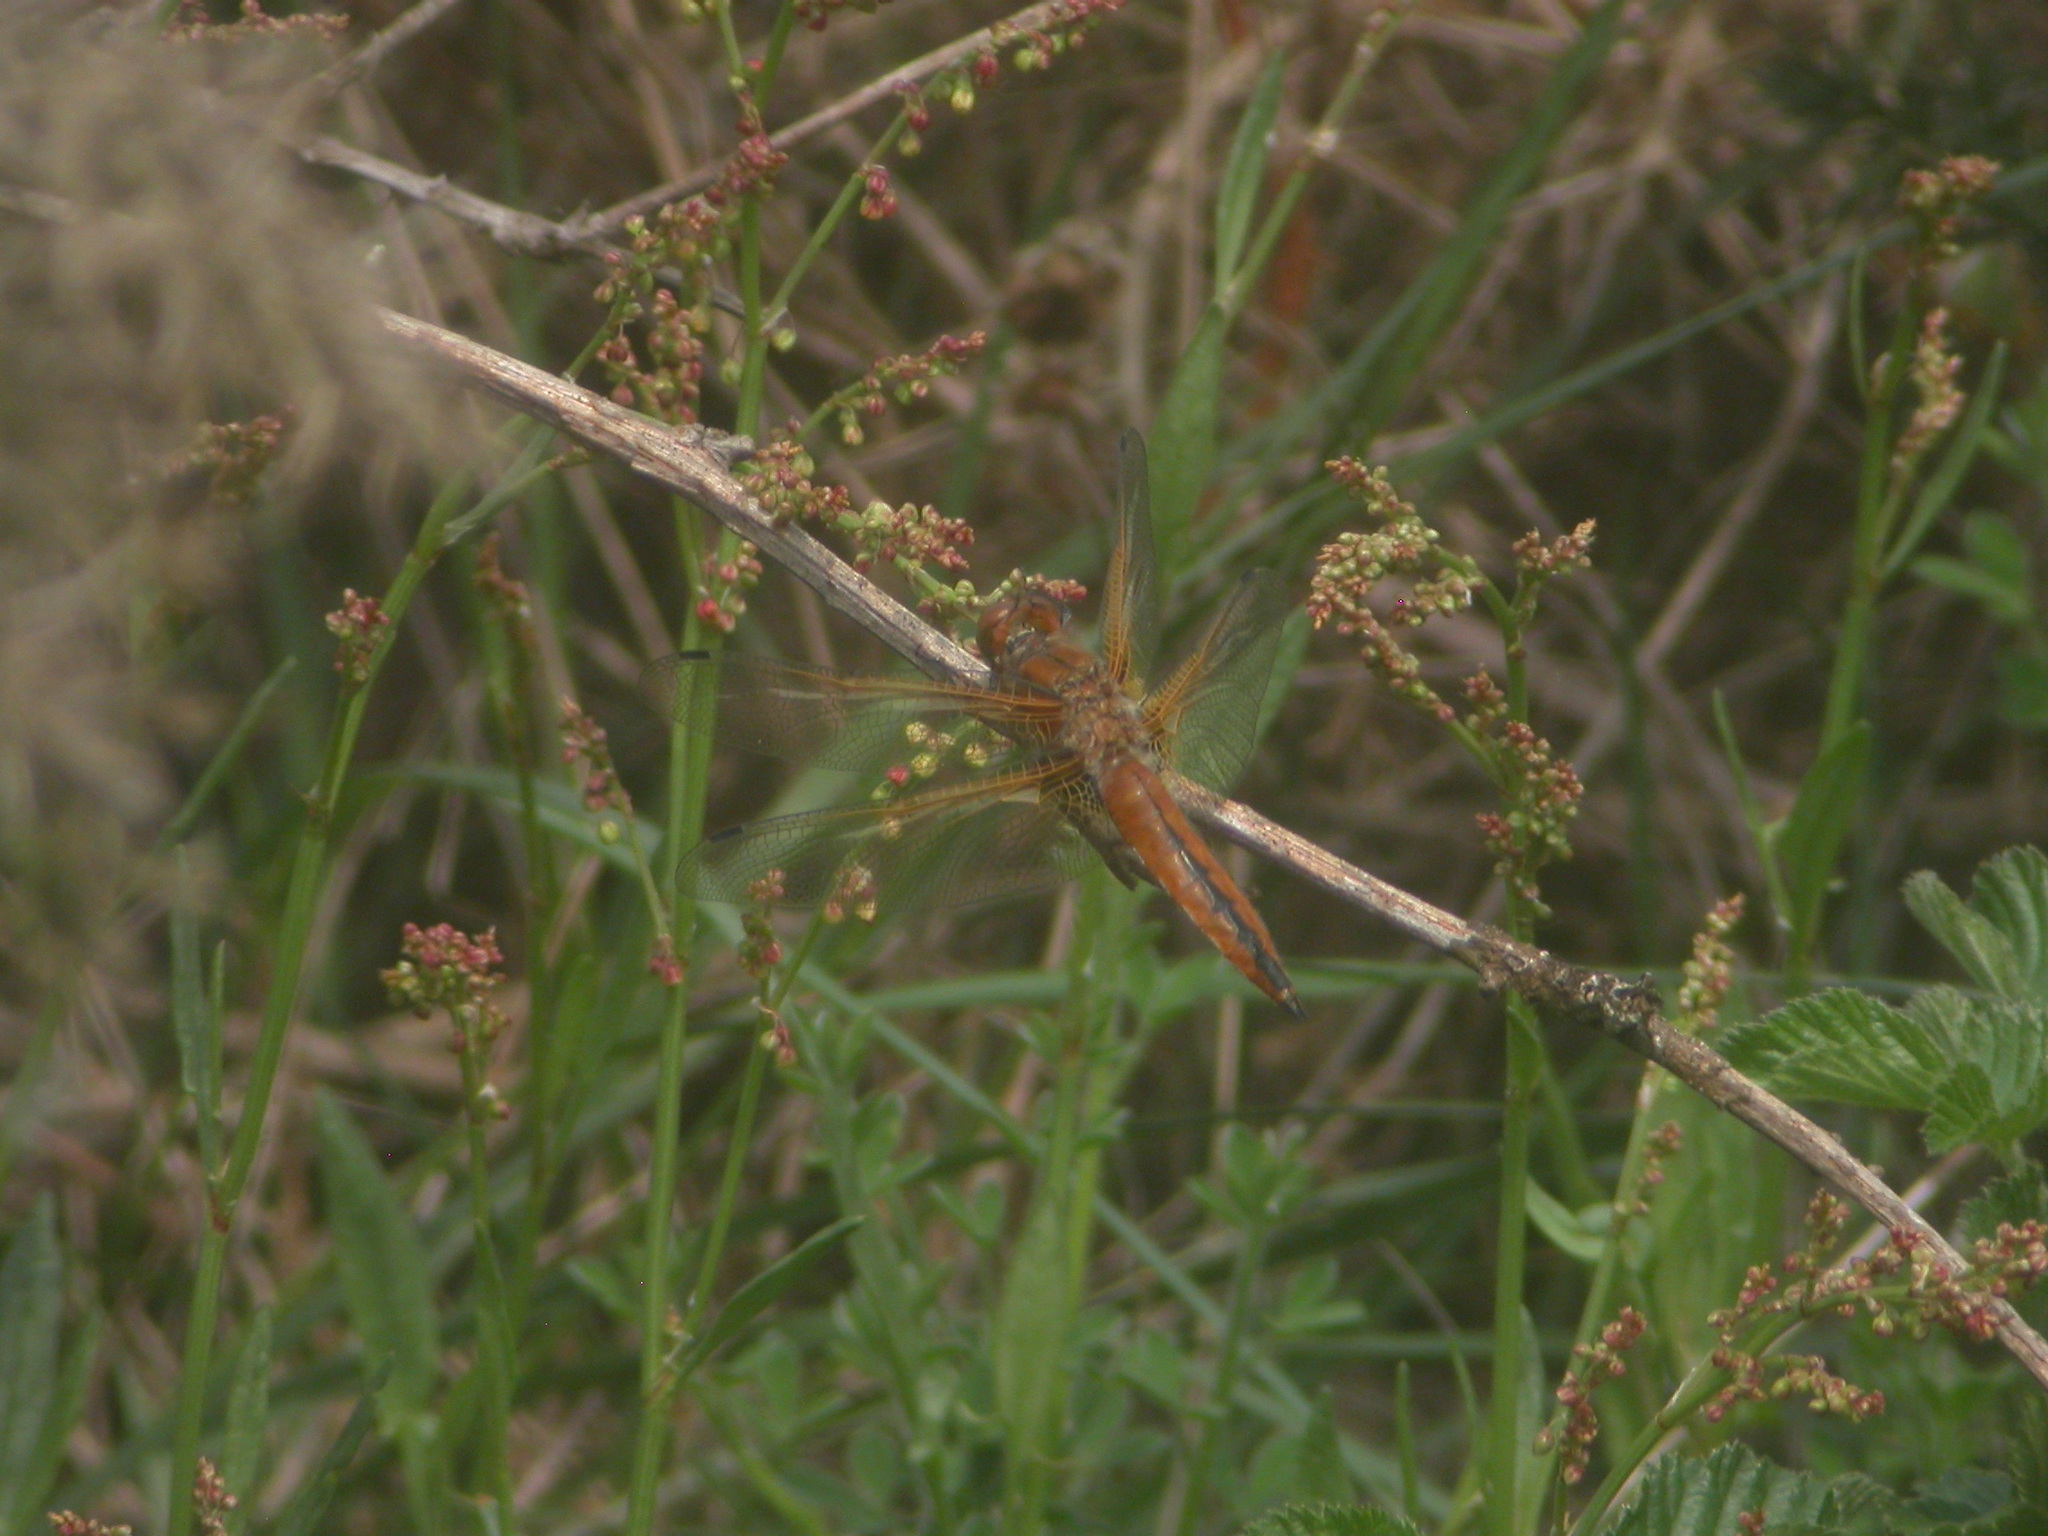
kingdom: Animalia
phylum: Arthropoda
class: Insecta
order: Odonata
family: Libellulidae
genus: Libellula
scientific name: Libellula fulva
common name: Blue chaser
